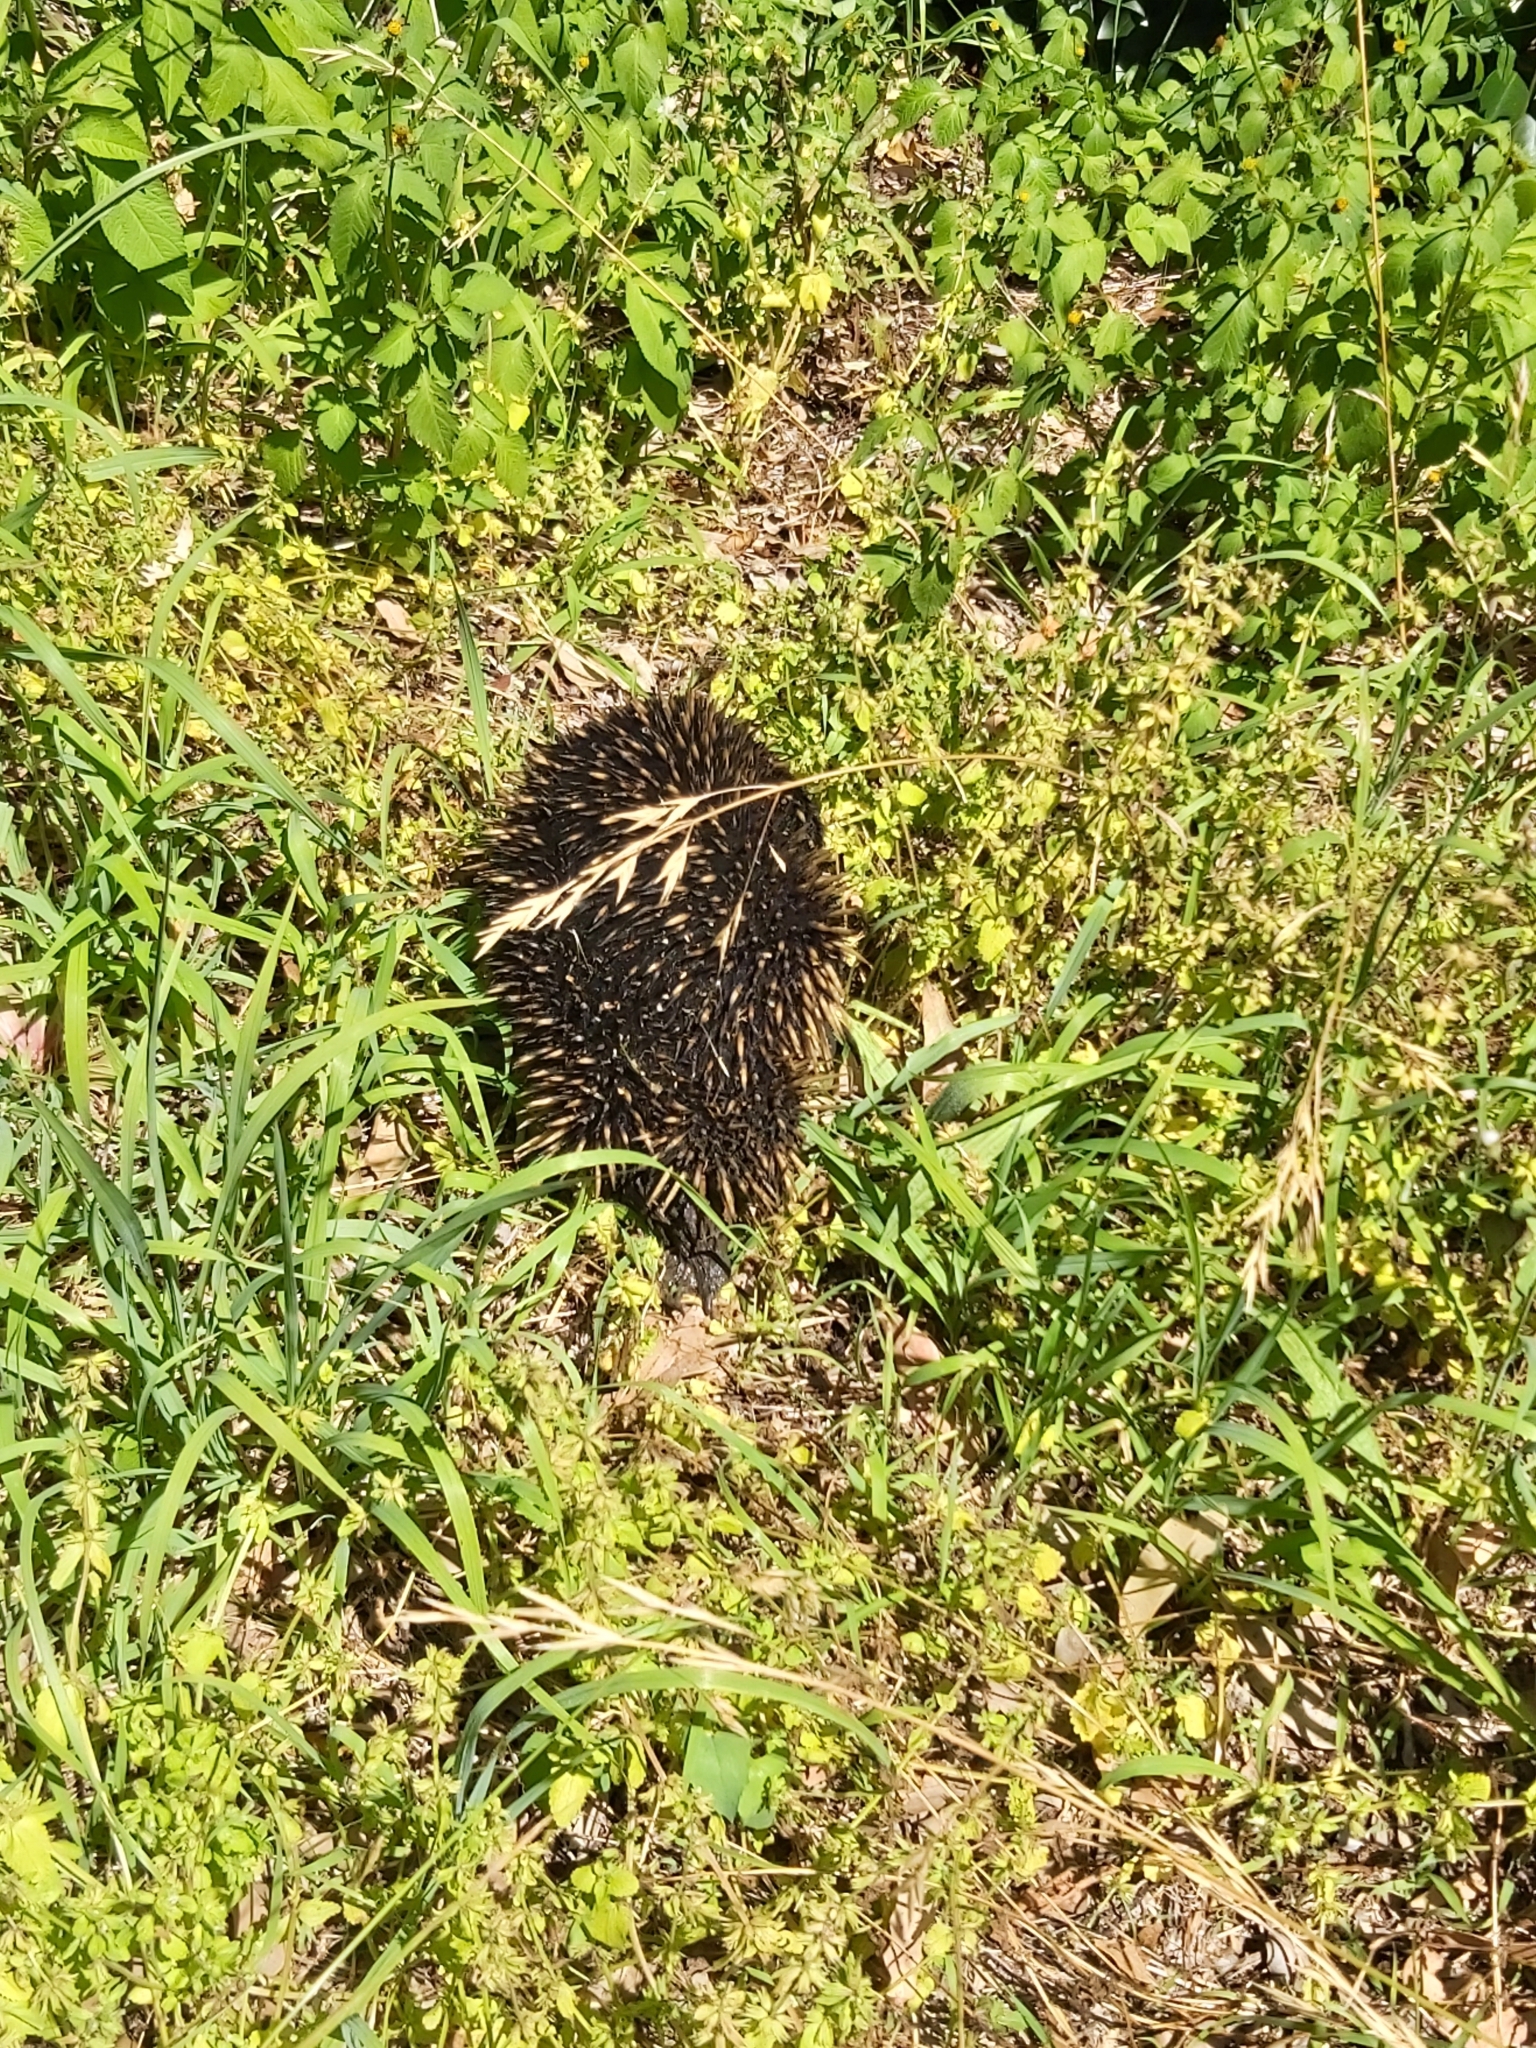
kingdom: Animalia
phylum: Chordata
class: Mammalia
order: Monotremata
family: Tachyglossidae
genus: Tachyglossus
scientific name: Tachyglossus aculeatus
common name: Short-beaked echidna
